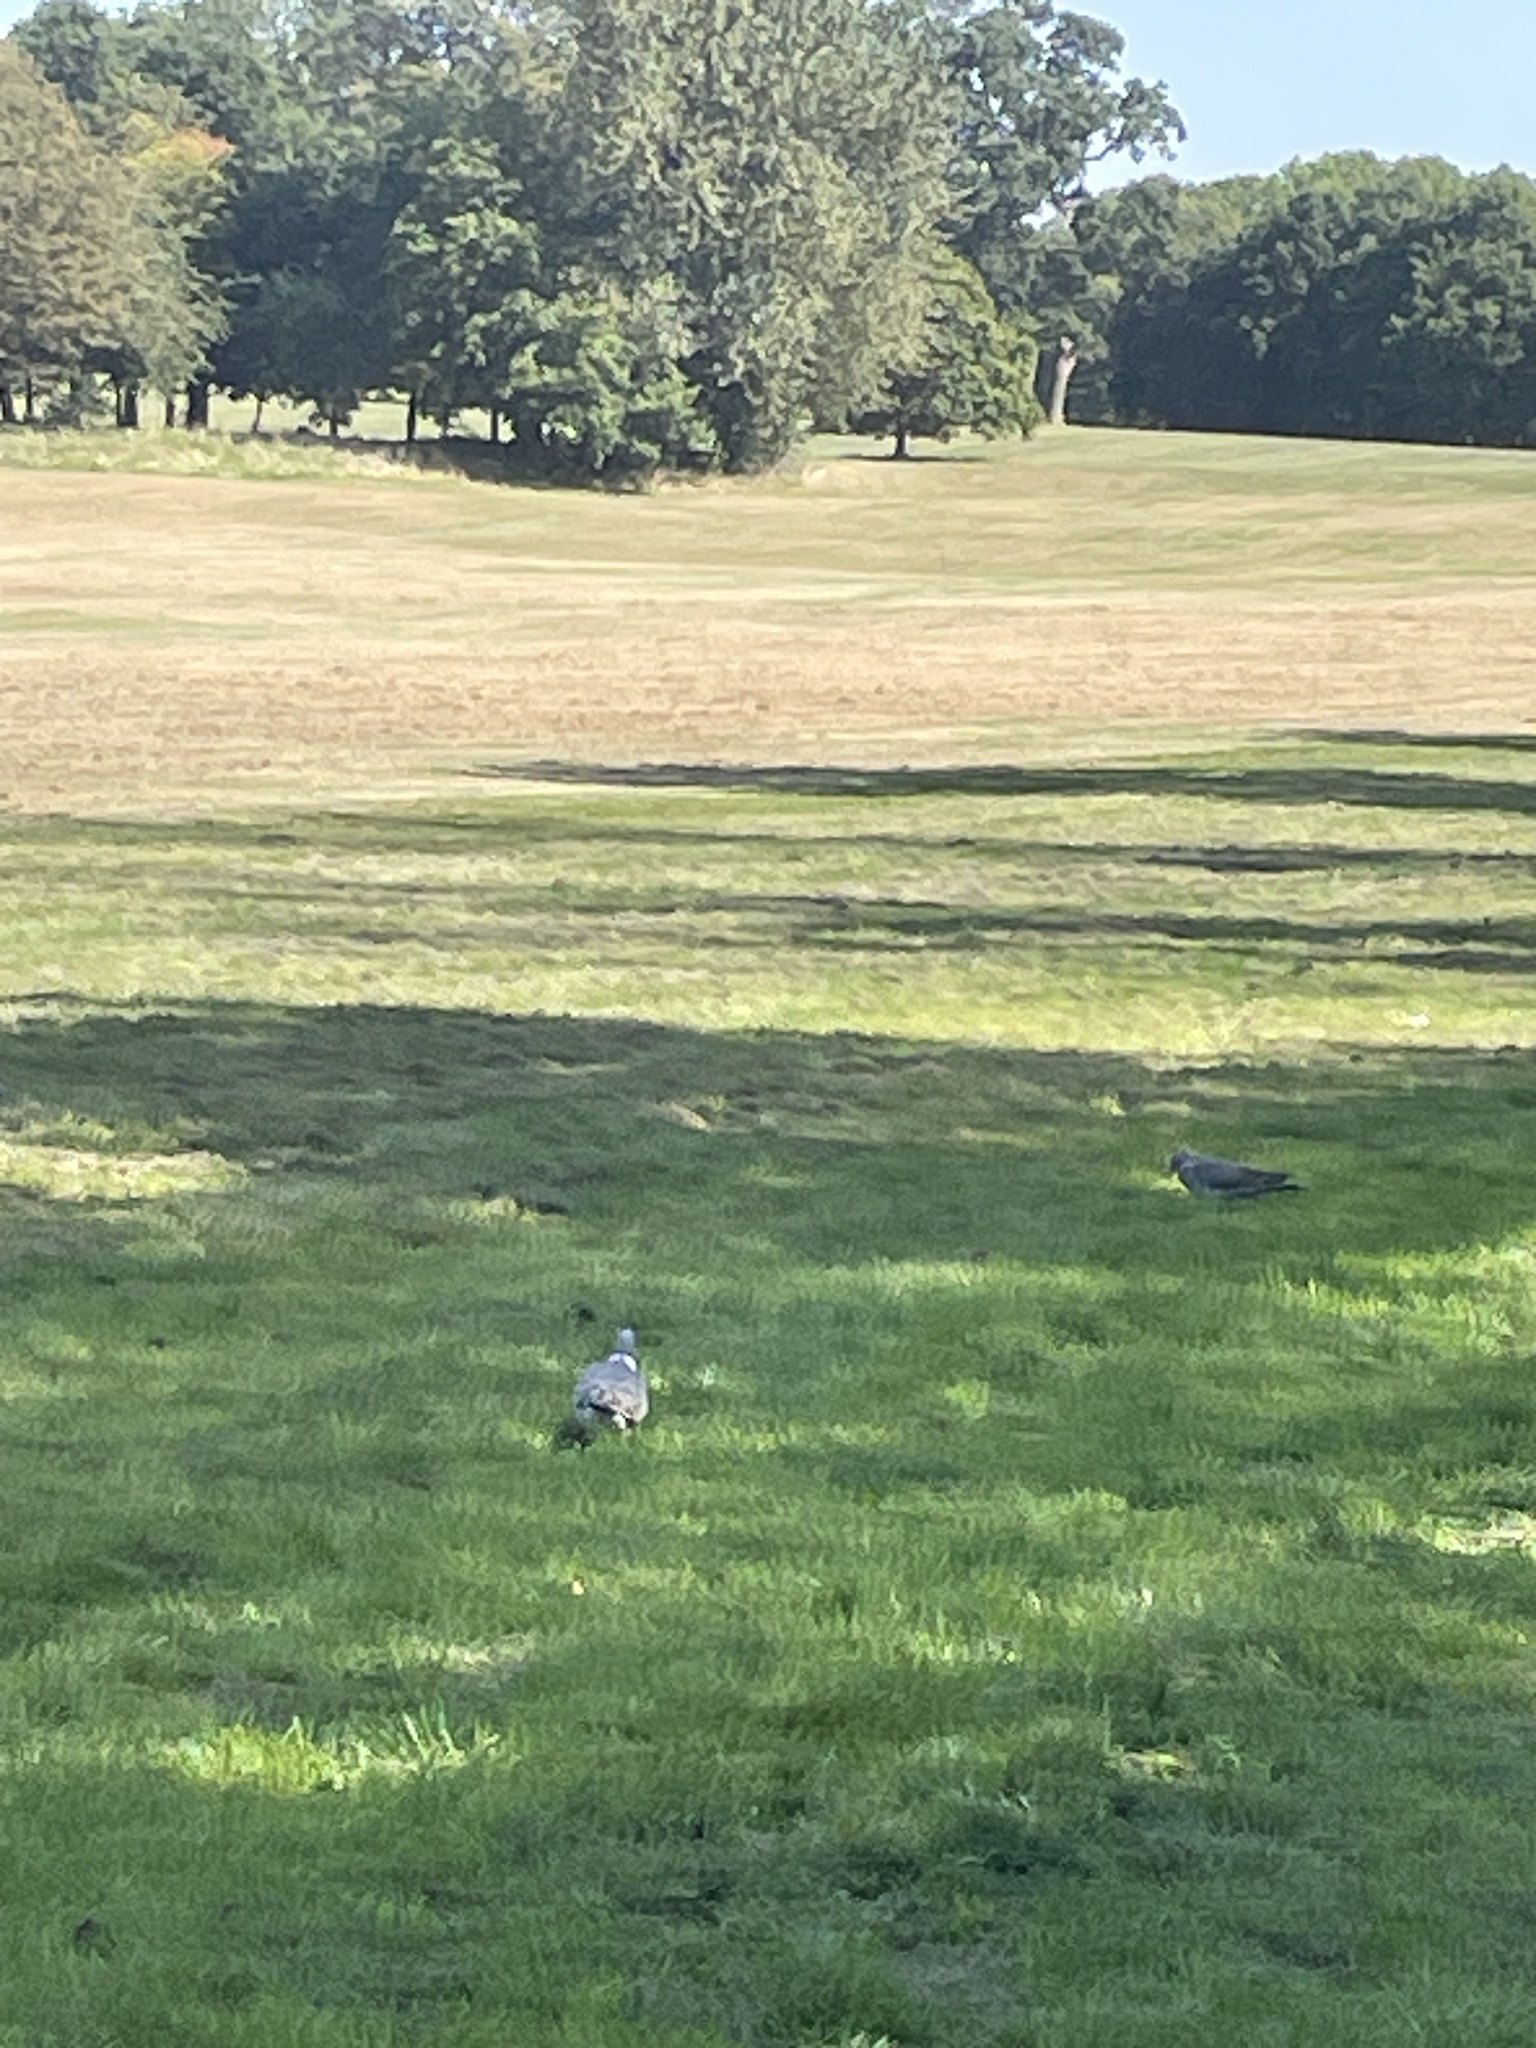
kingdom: Animalia
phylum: Chordata
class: Aves
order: Columbiformes
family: Columbidae
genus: Columba
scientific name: Columba palumbus
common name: Common wood pigeon
